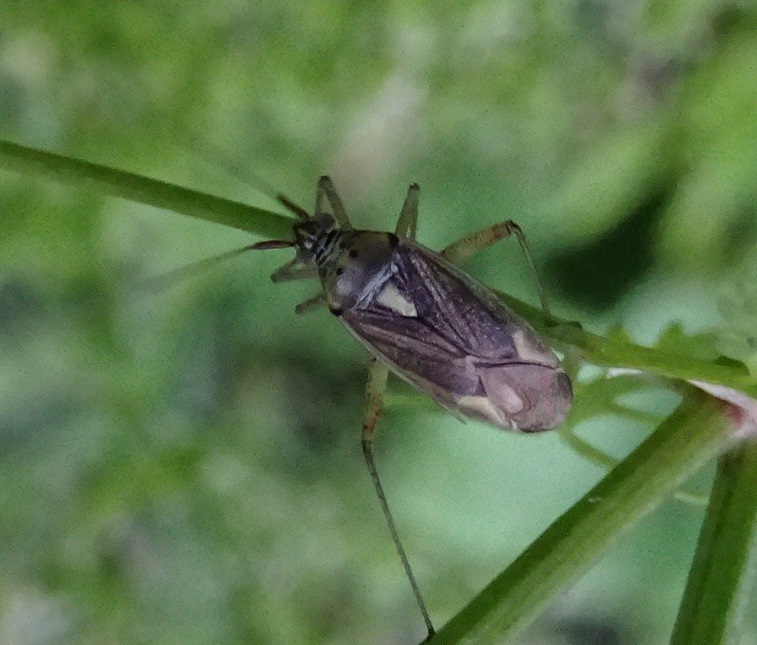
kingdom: Animalia
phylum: Arthropoda
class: Insecta
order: Hemiptera
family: Miridae
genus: Closterotomus
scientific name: Closterotomus trivialis
